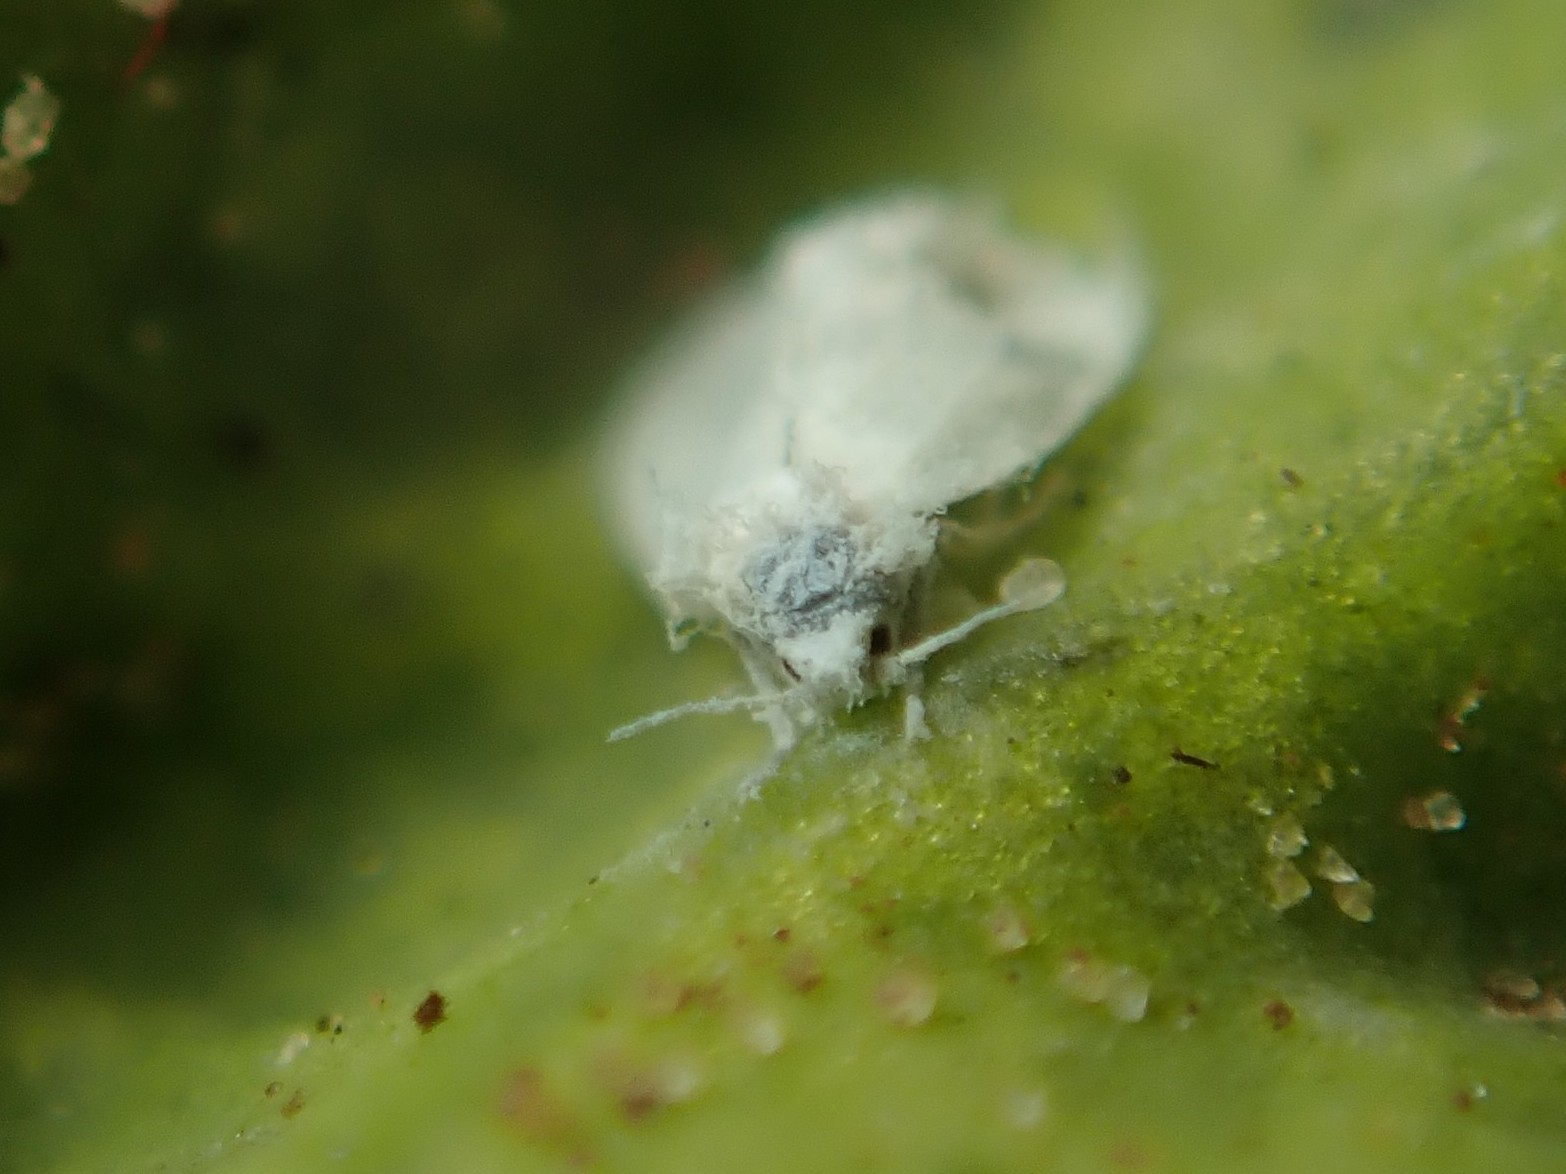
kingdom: Animalia
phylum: Arthropoda
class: Insecta
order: Hemiptera
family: Aleyrodidae
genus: Aleyrodes
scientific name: Aleyrodes proletella
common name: Cabbage whitefly
